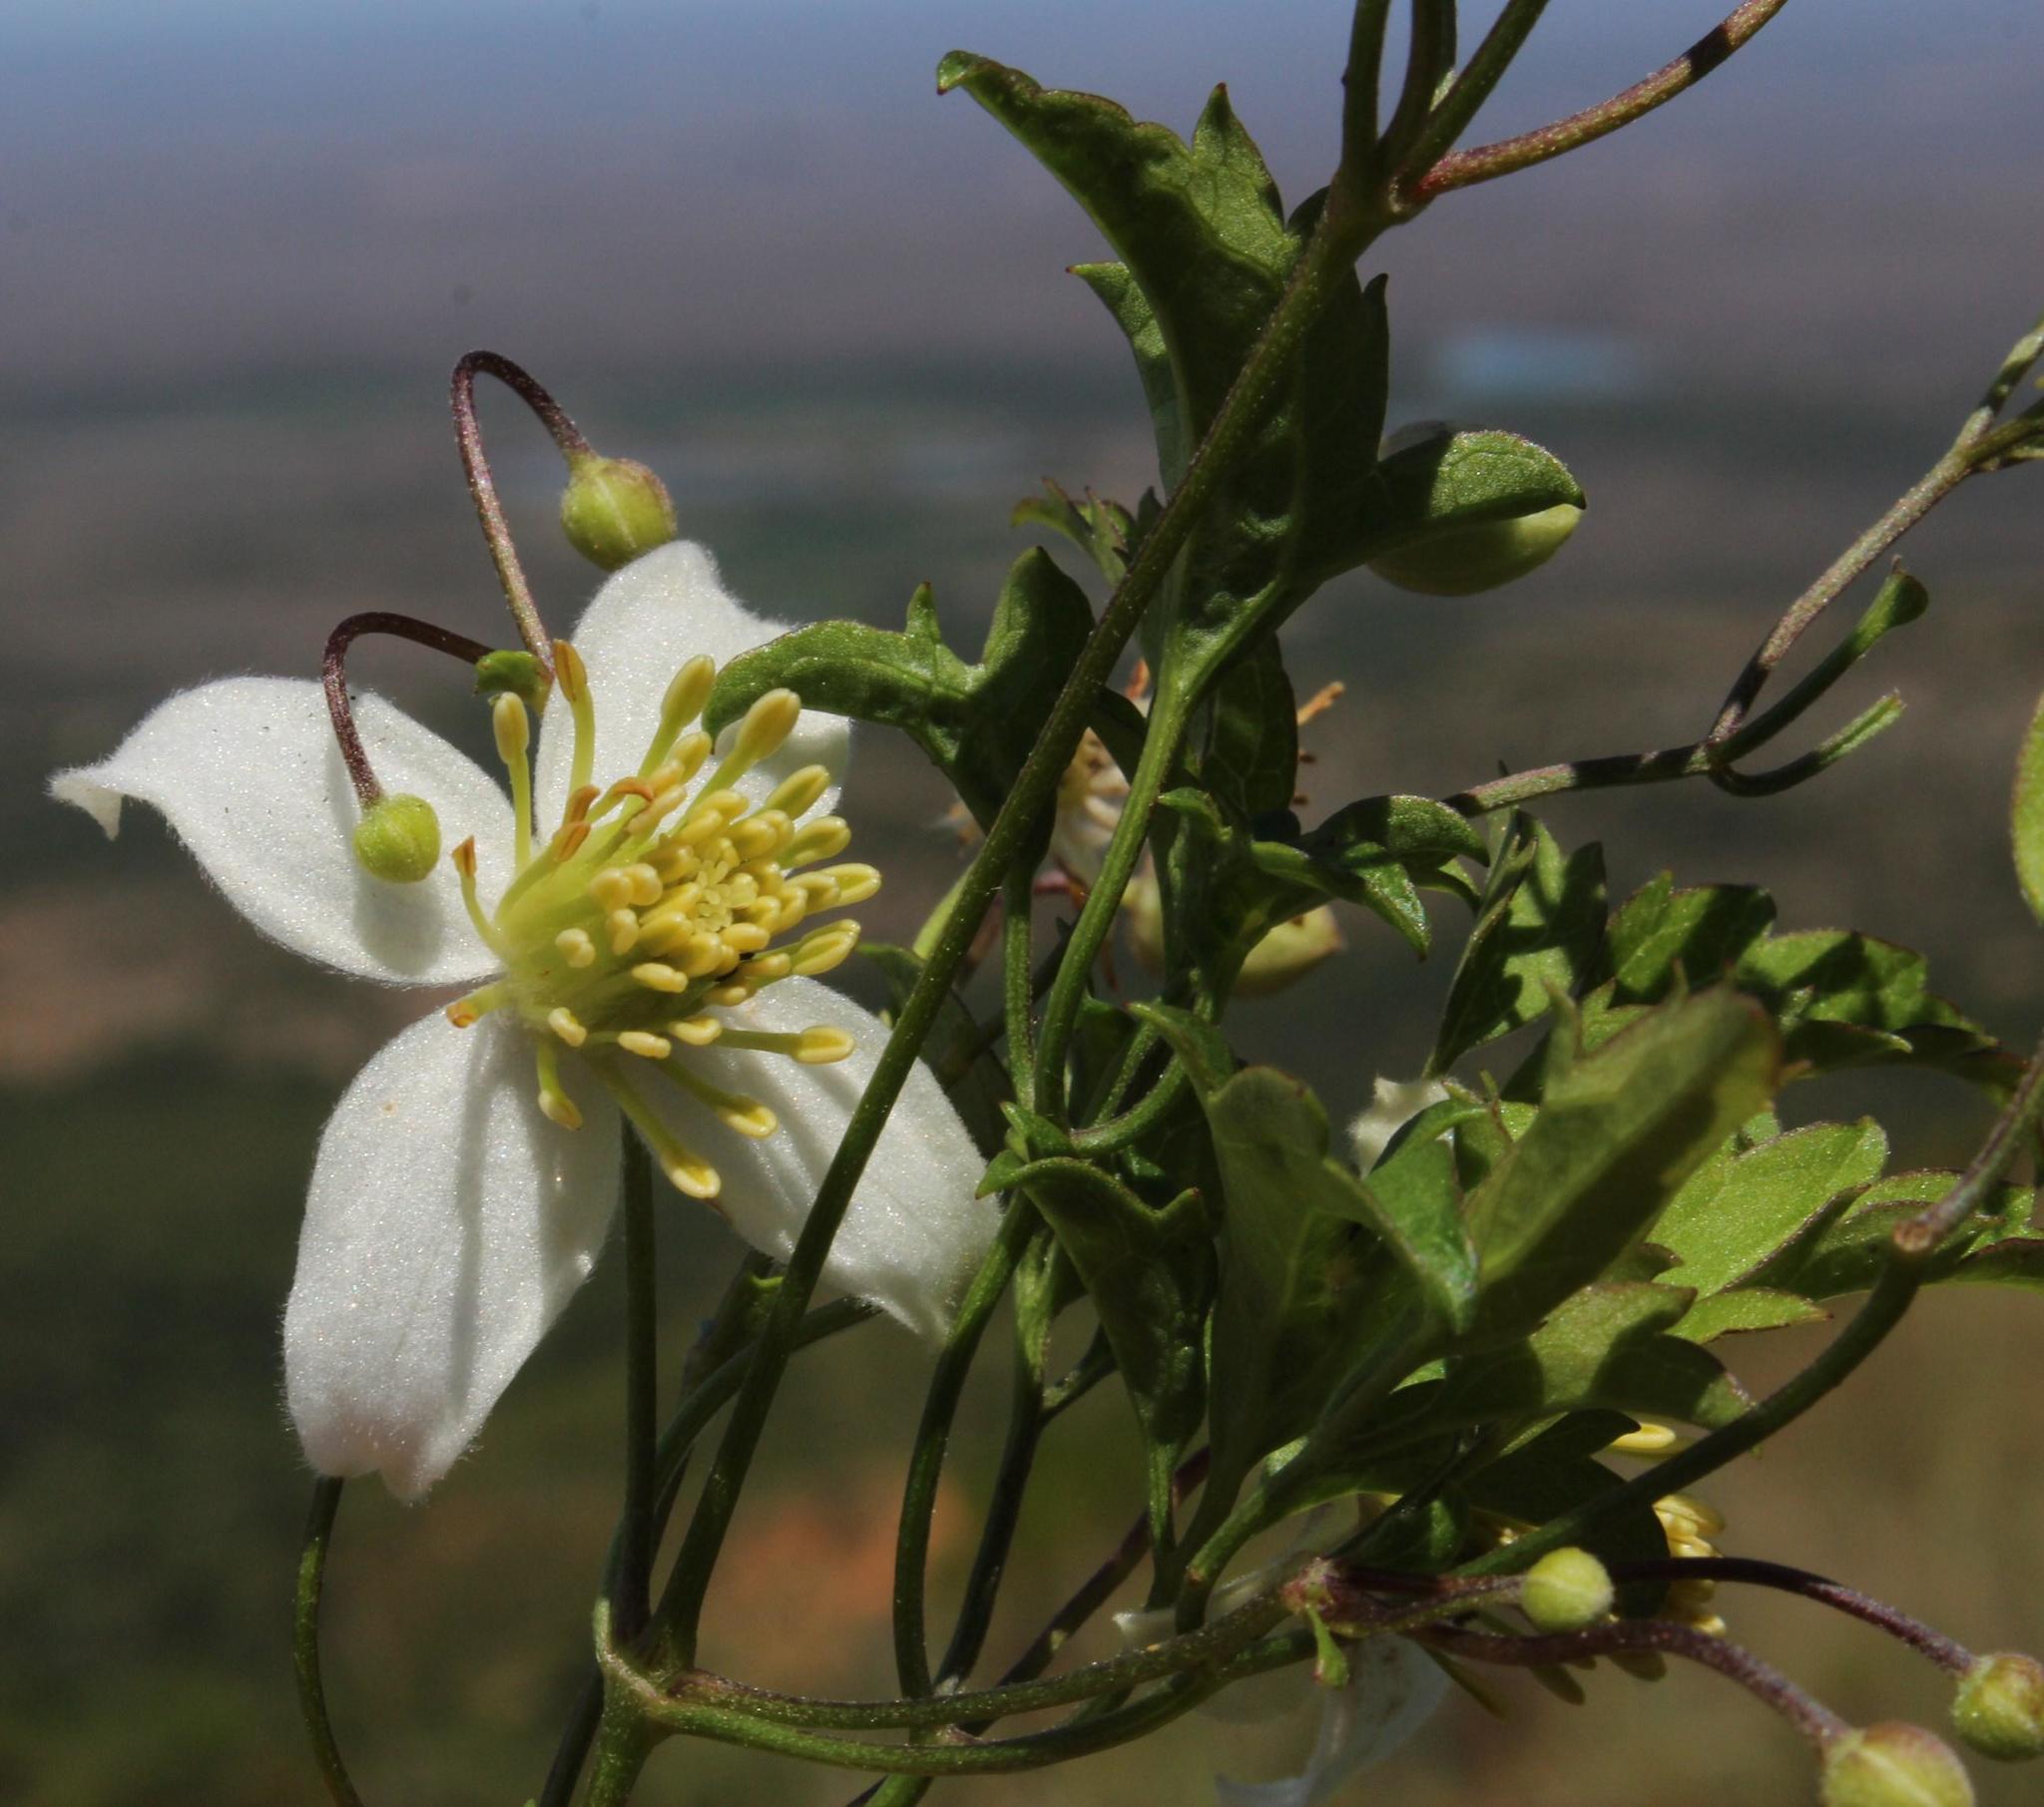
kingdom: Plantae
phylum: Tracheophyta
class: Magnoliopsida
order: Ranunculales
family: Ranunculaceae
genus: Clematis
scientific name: Clematis brachiata
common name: Traveler's-joy
